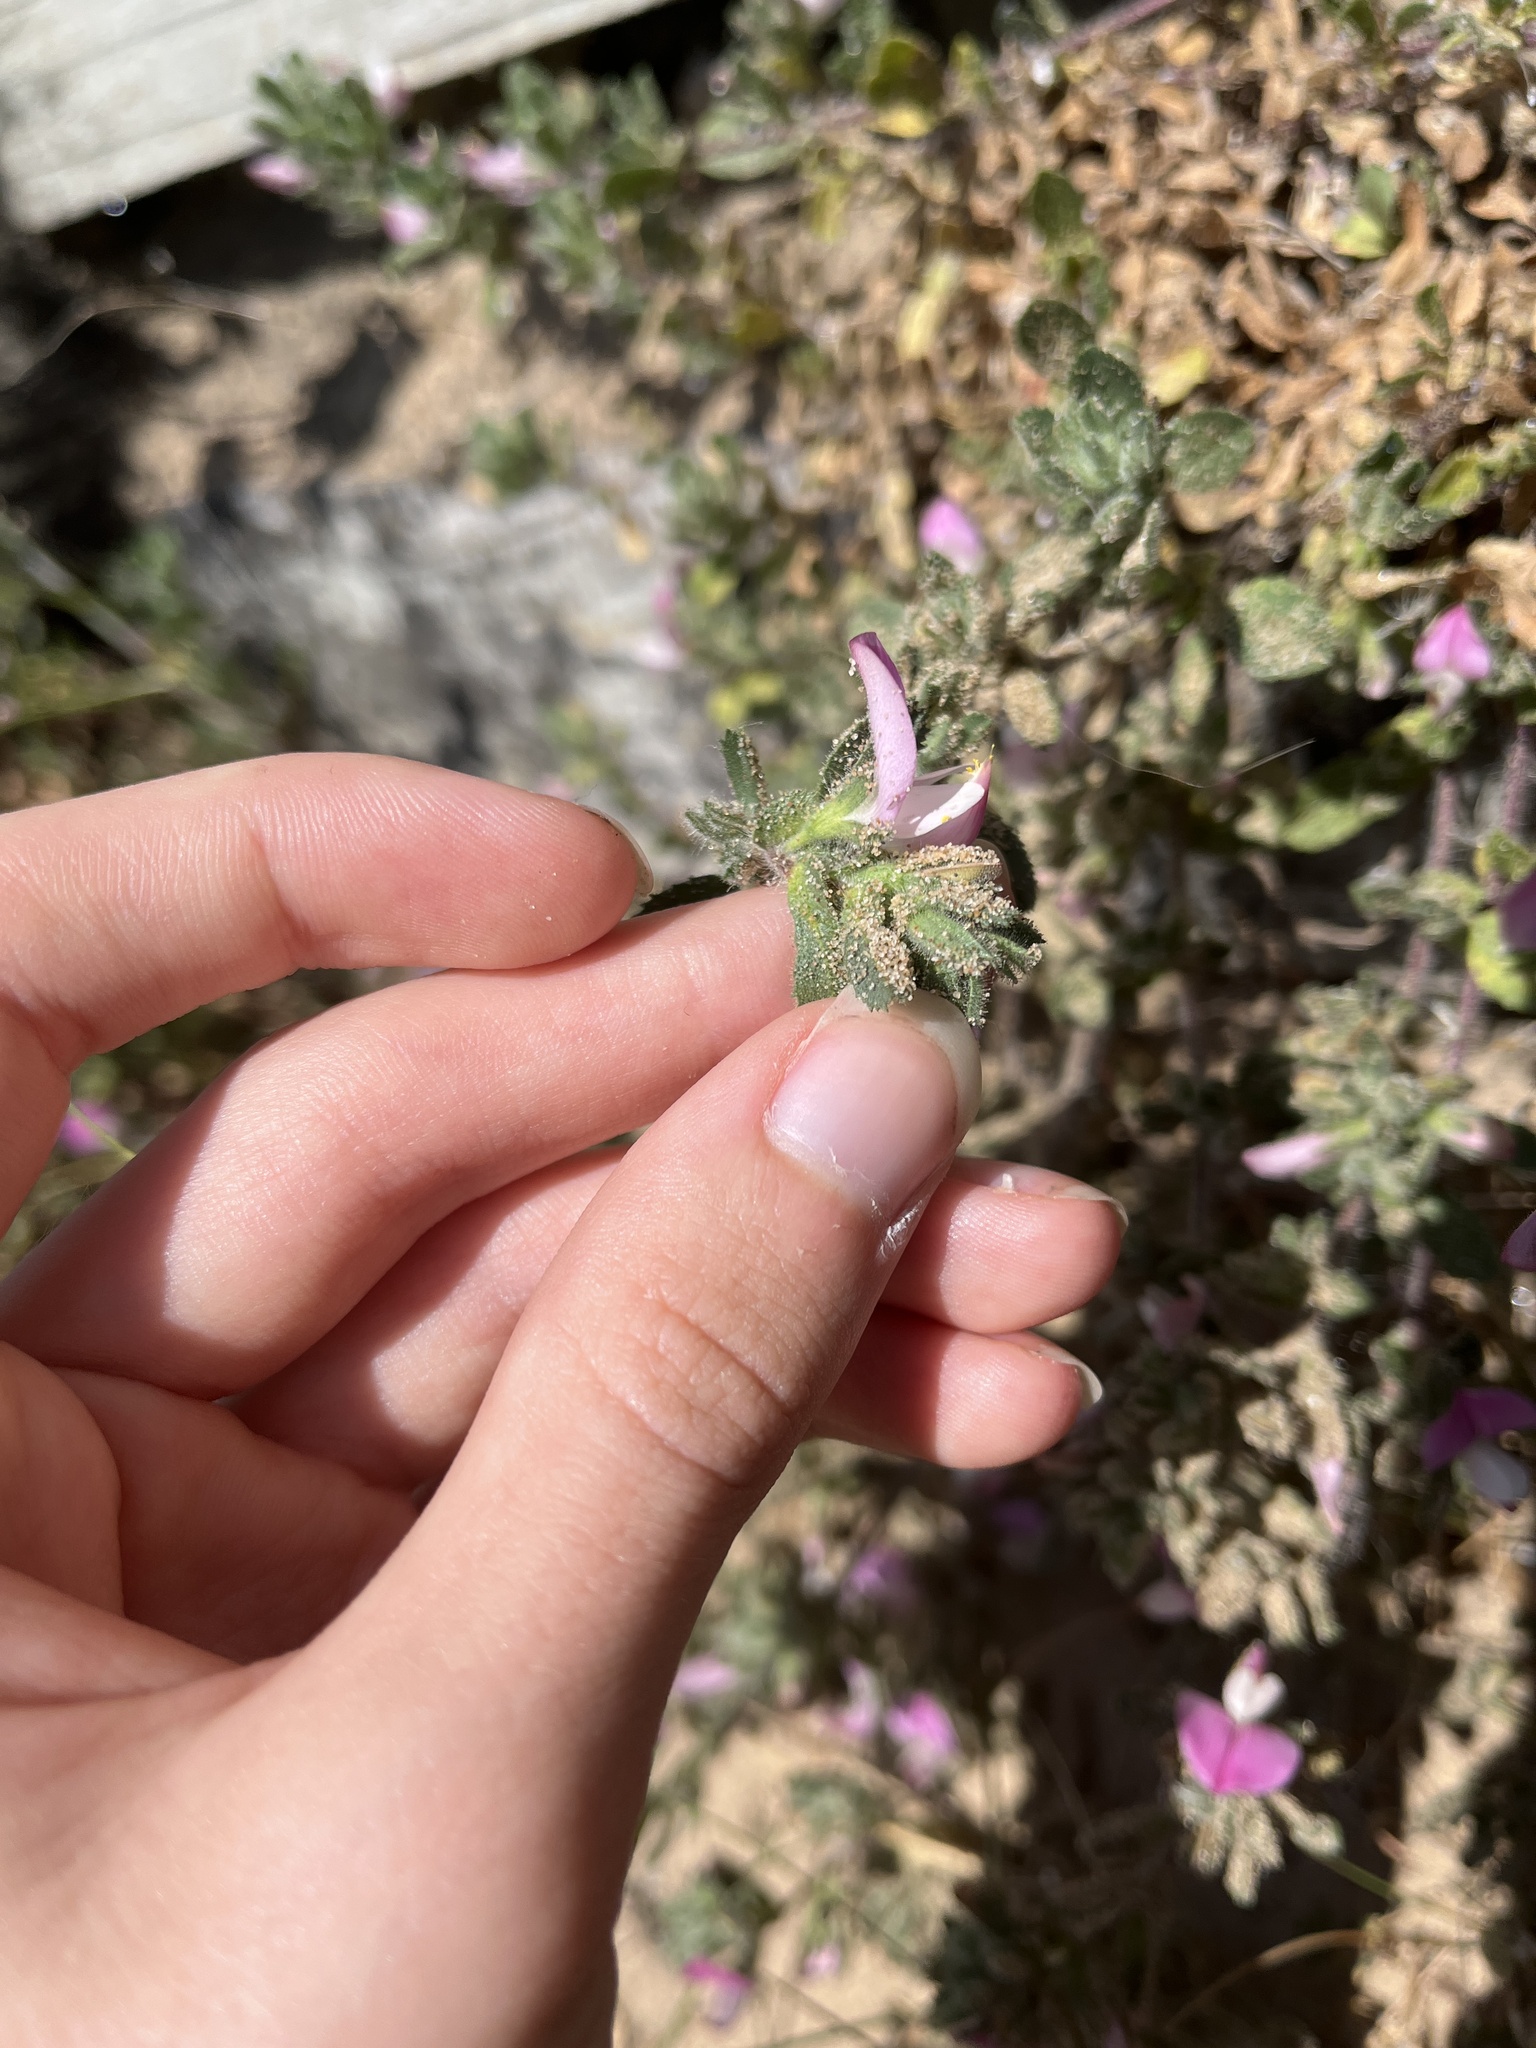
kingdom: Plantae
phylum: Tracheophyta
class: Magnoliopsida
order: Fabales
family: Fabaceae
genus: Ononis
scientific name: Ononis spinosa
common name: Spiny restharrow
